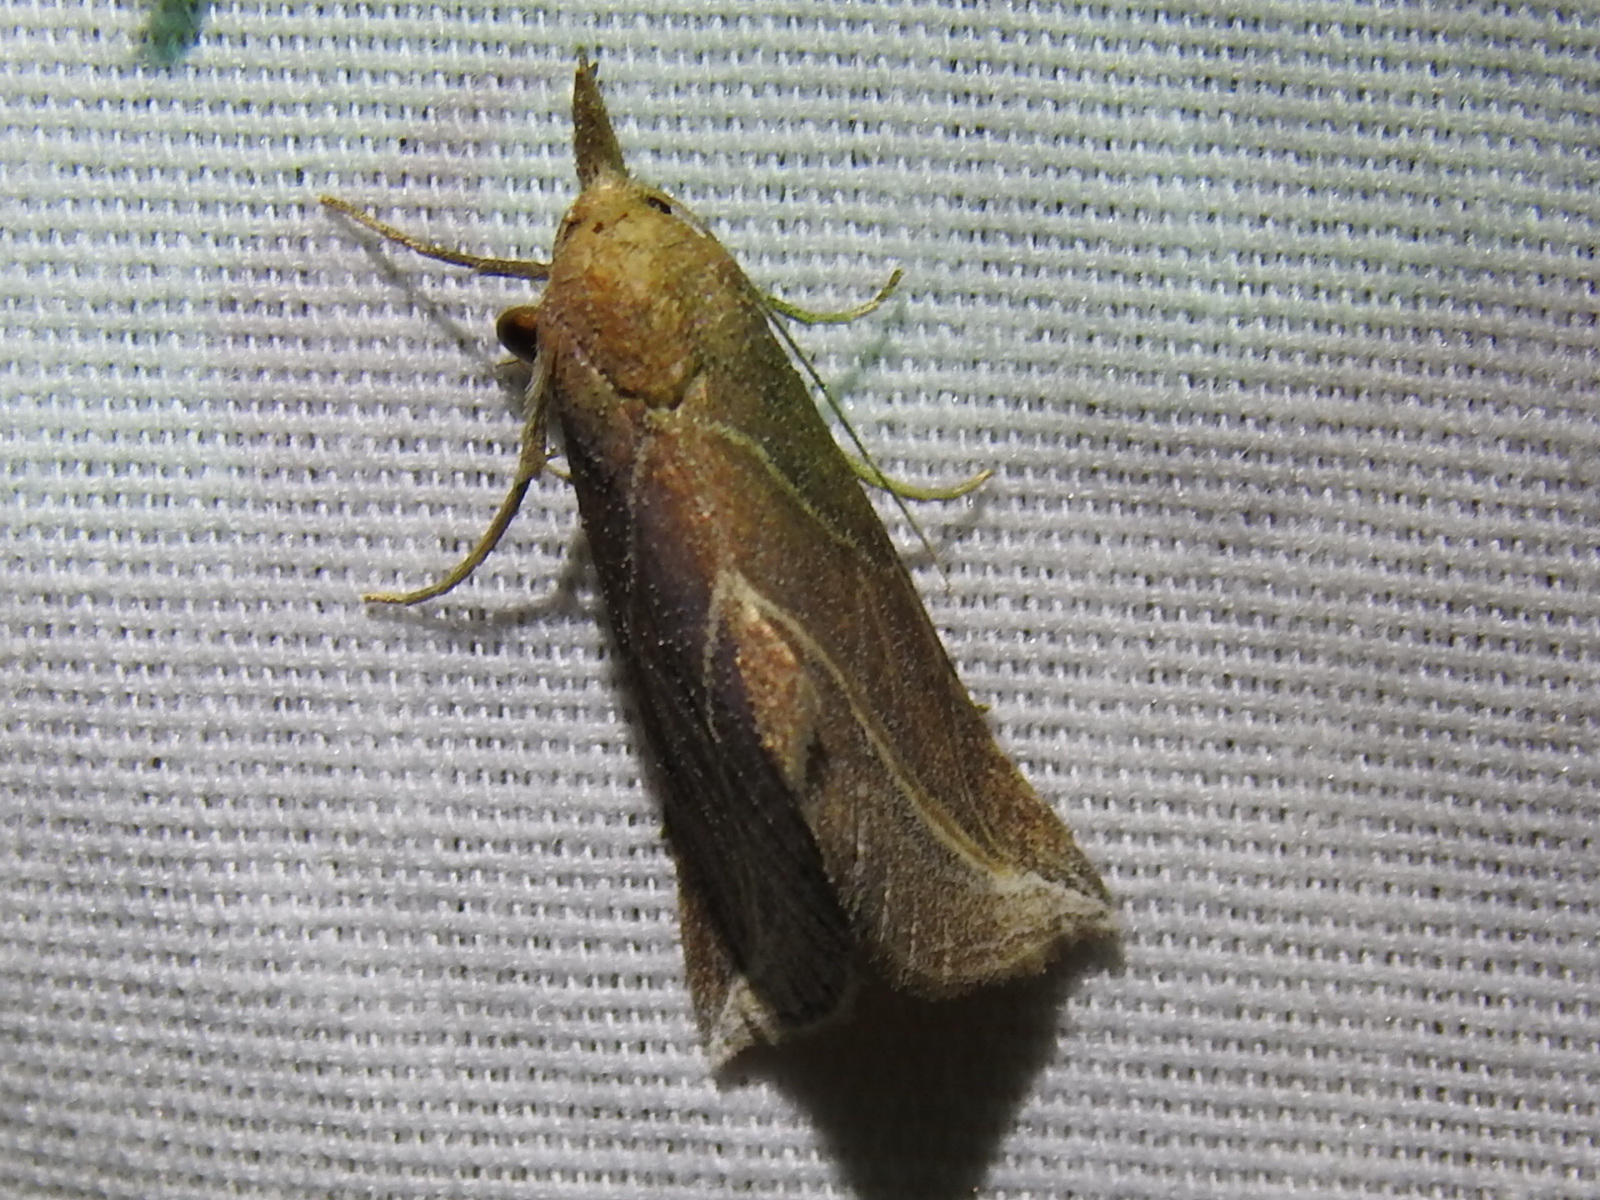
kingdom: Animalia
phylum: Arthropoda
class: Insecta
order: Lepidoptera
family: Erebidae
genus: Phyprosopus
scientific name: Phyprosopus callitrichoides
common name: Curved-lined owlet
